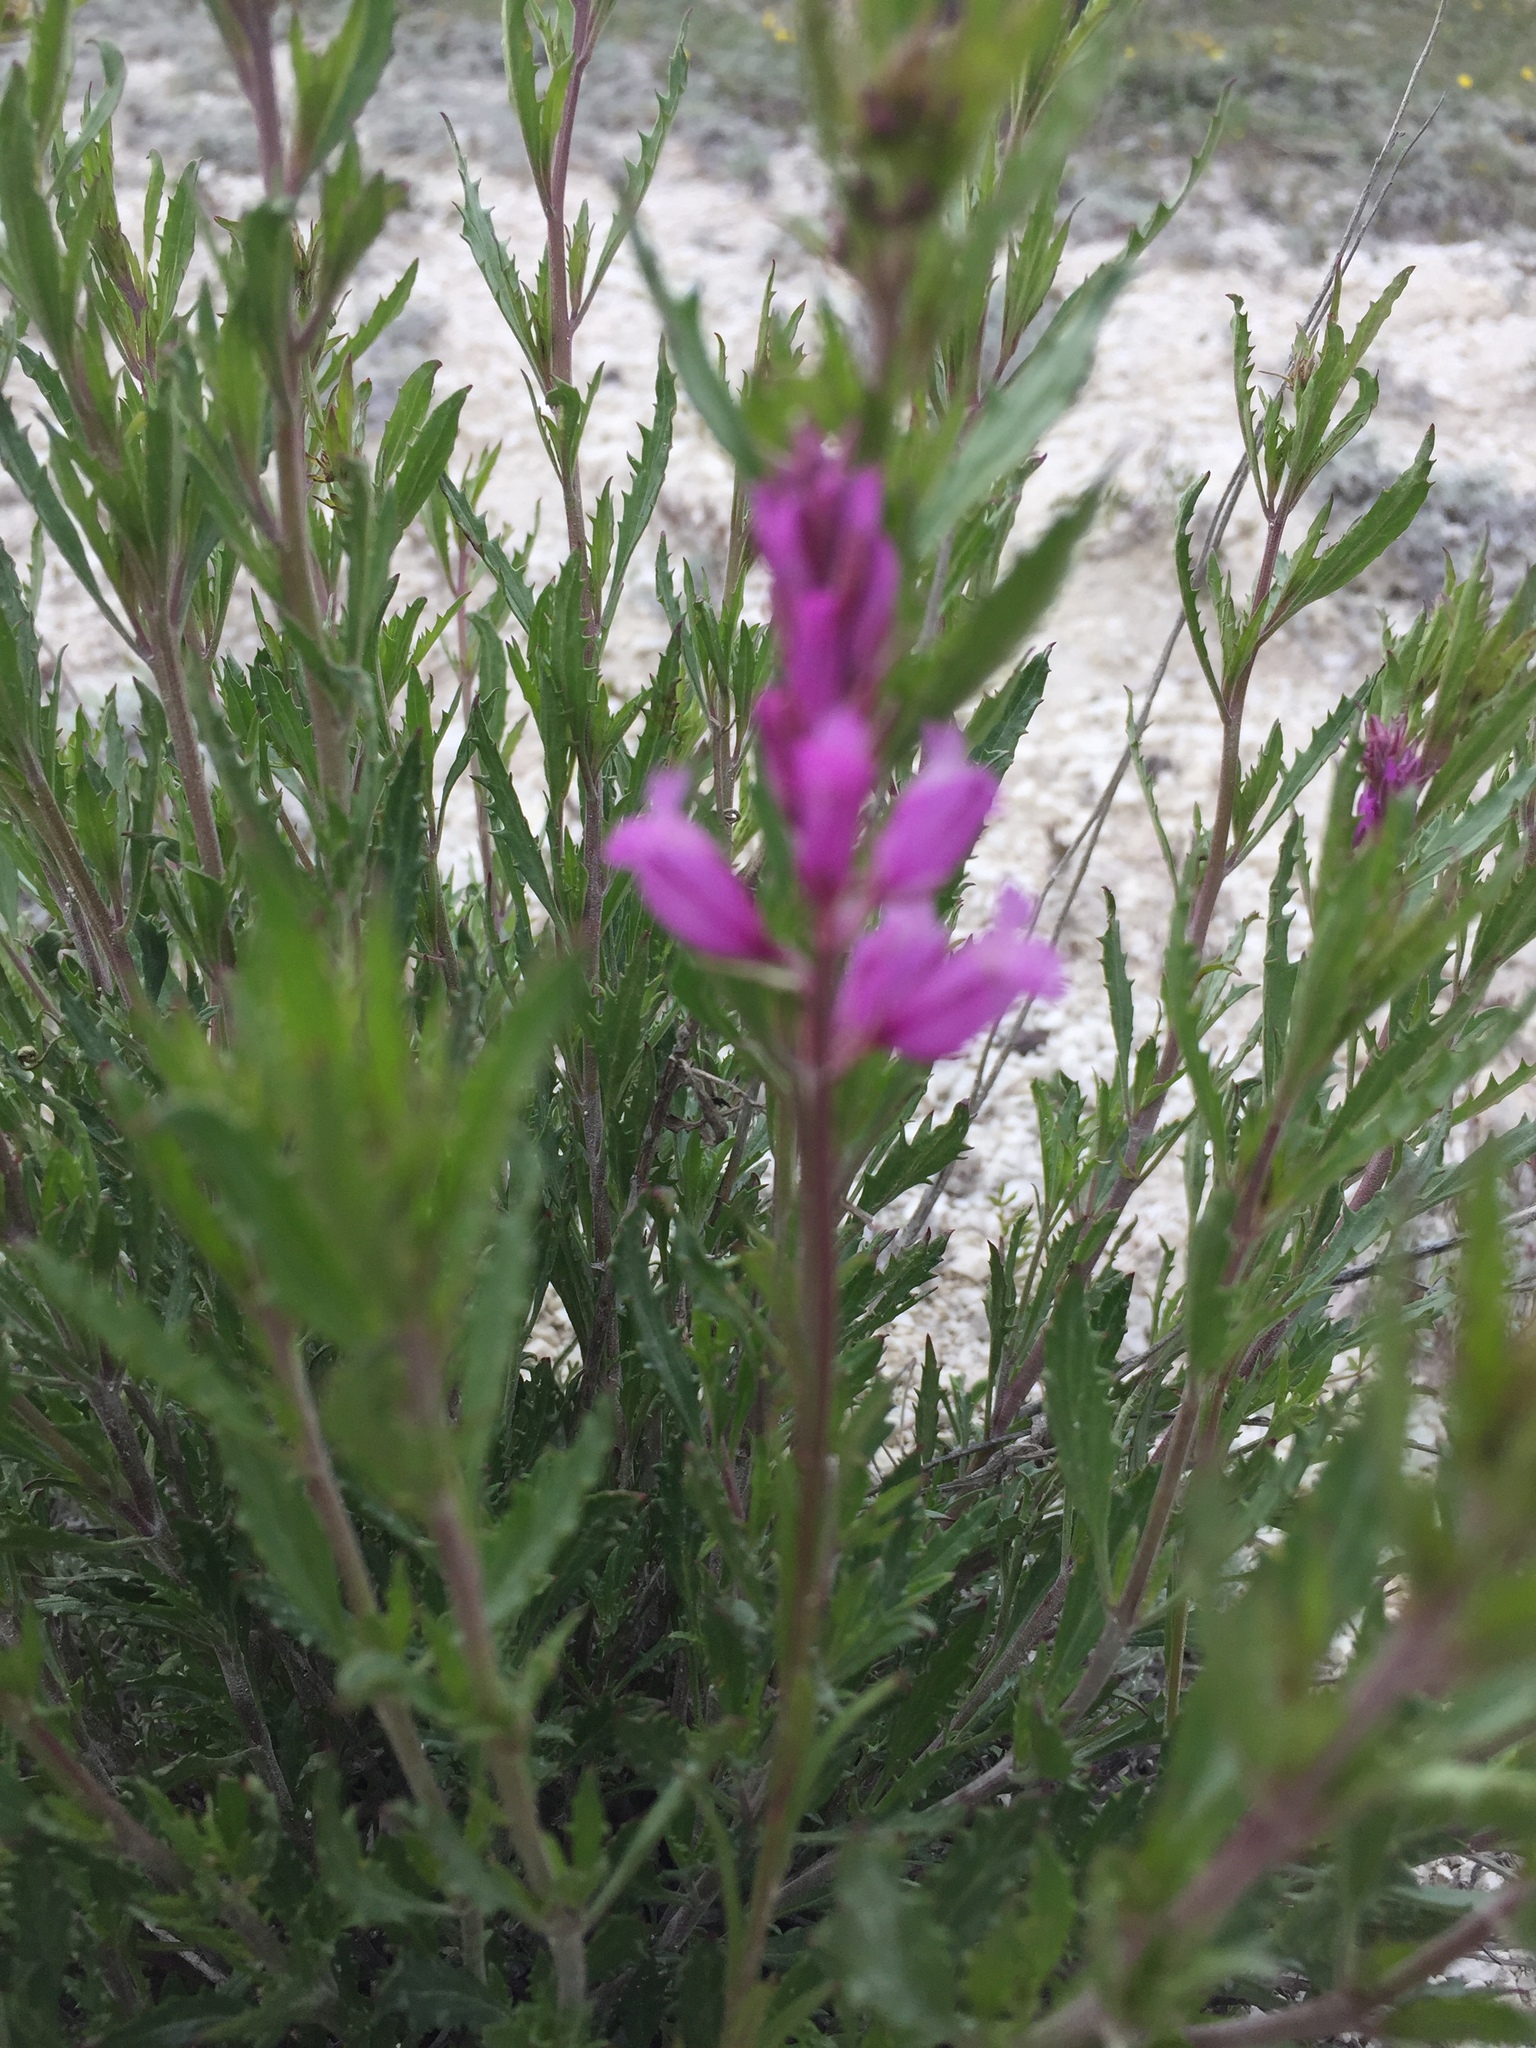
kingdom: Plantae
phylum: Tracheophyta
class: Magnoliopsida
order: Fabales
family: Polygalaceae
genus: Polygala
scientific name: Polygala nicaeensis
